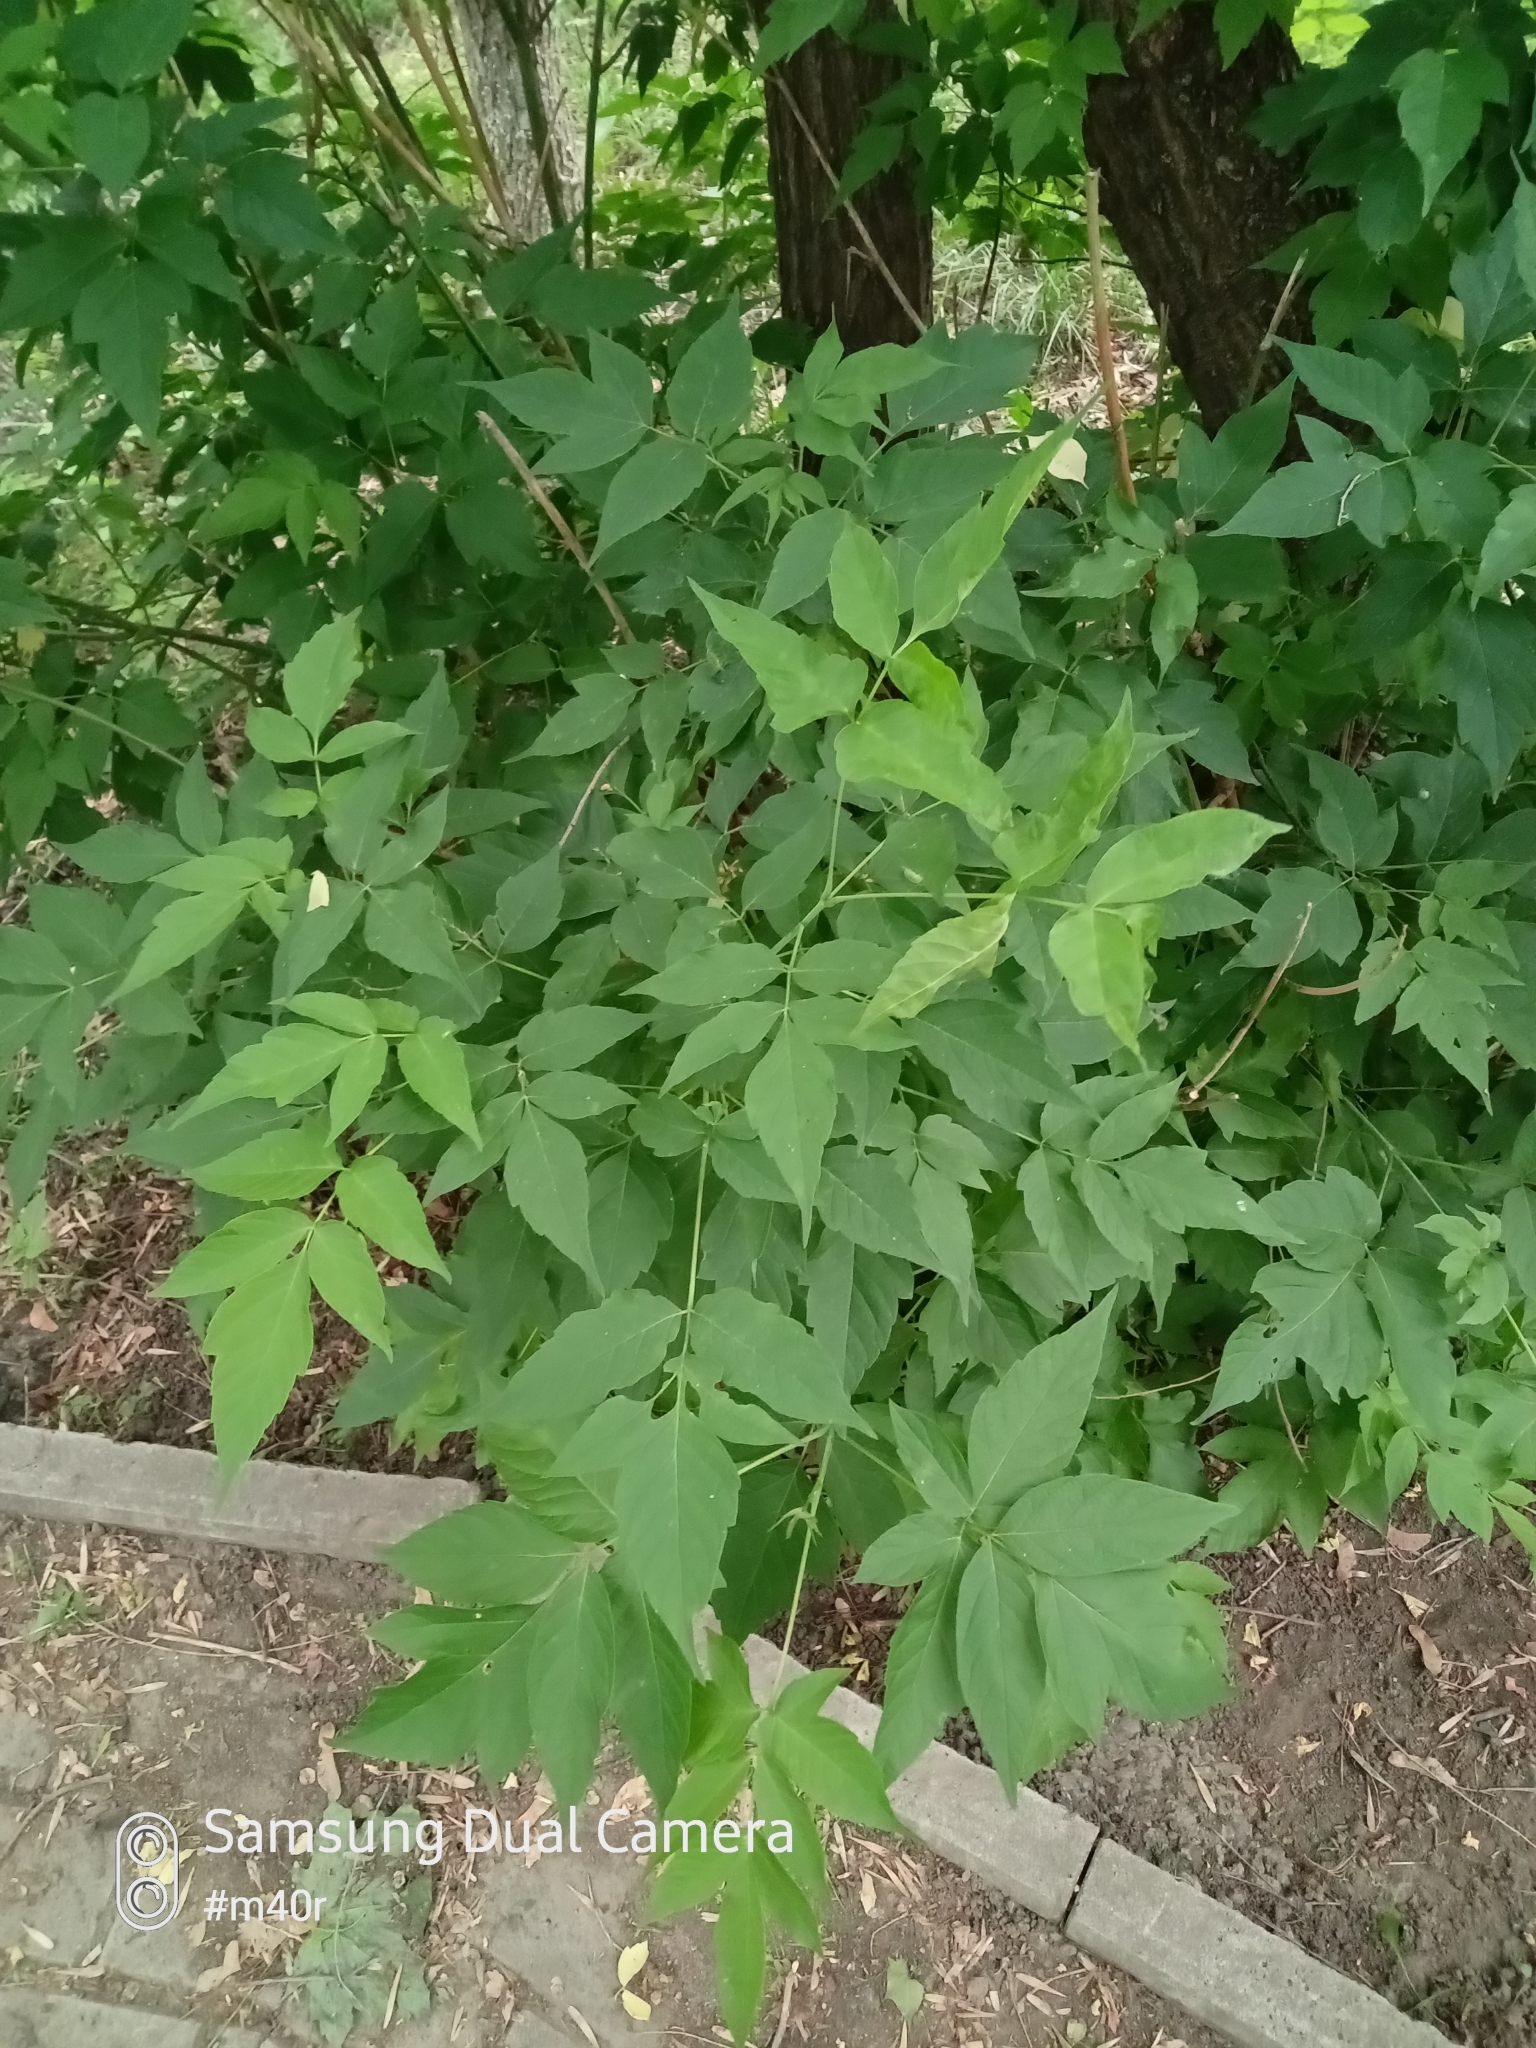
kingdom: Plantae
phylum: Tracheophyta
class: Magnoliopsida
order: Sapindales
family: Sapindaceae
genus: Acer
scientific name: Acer negundo
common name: Ashleaf maple
